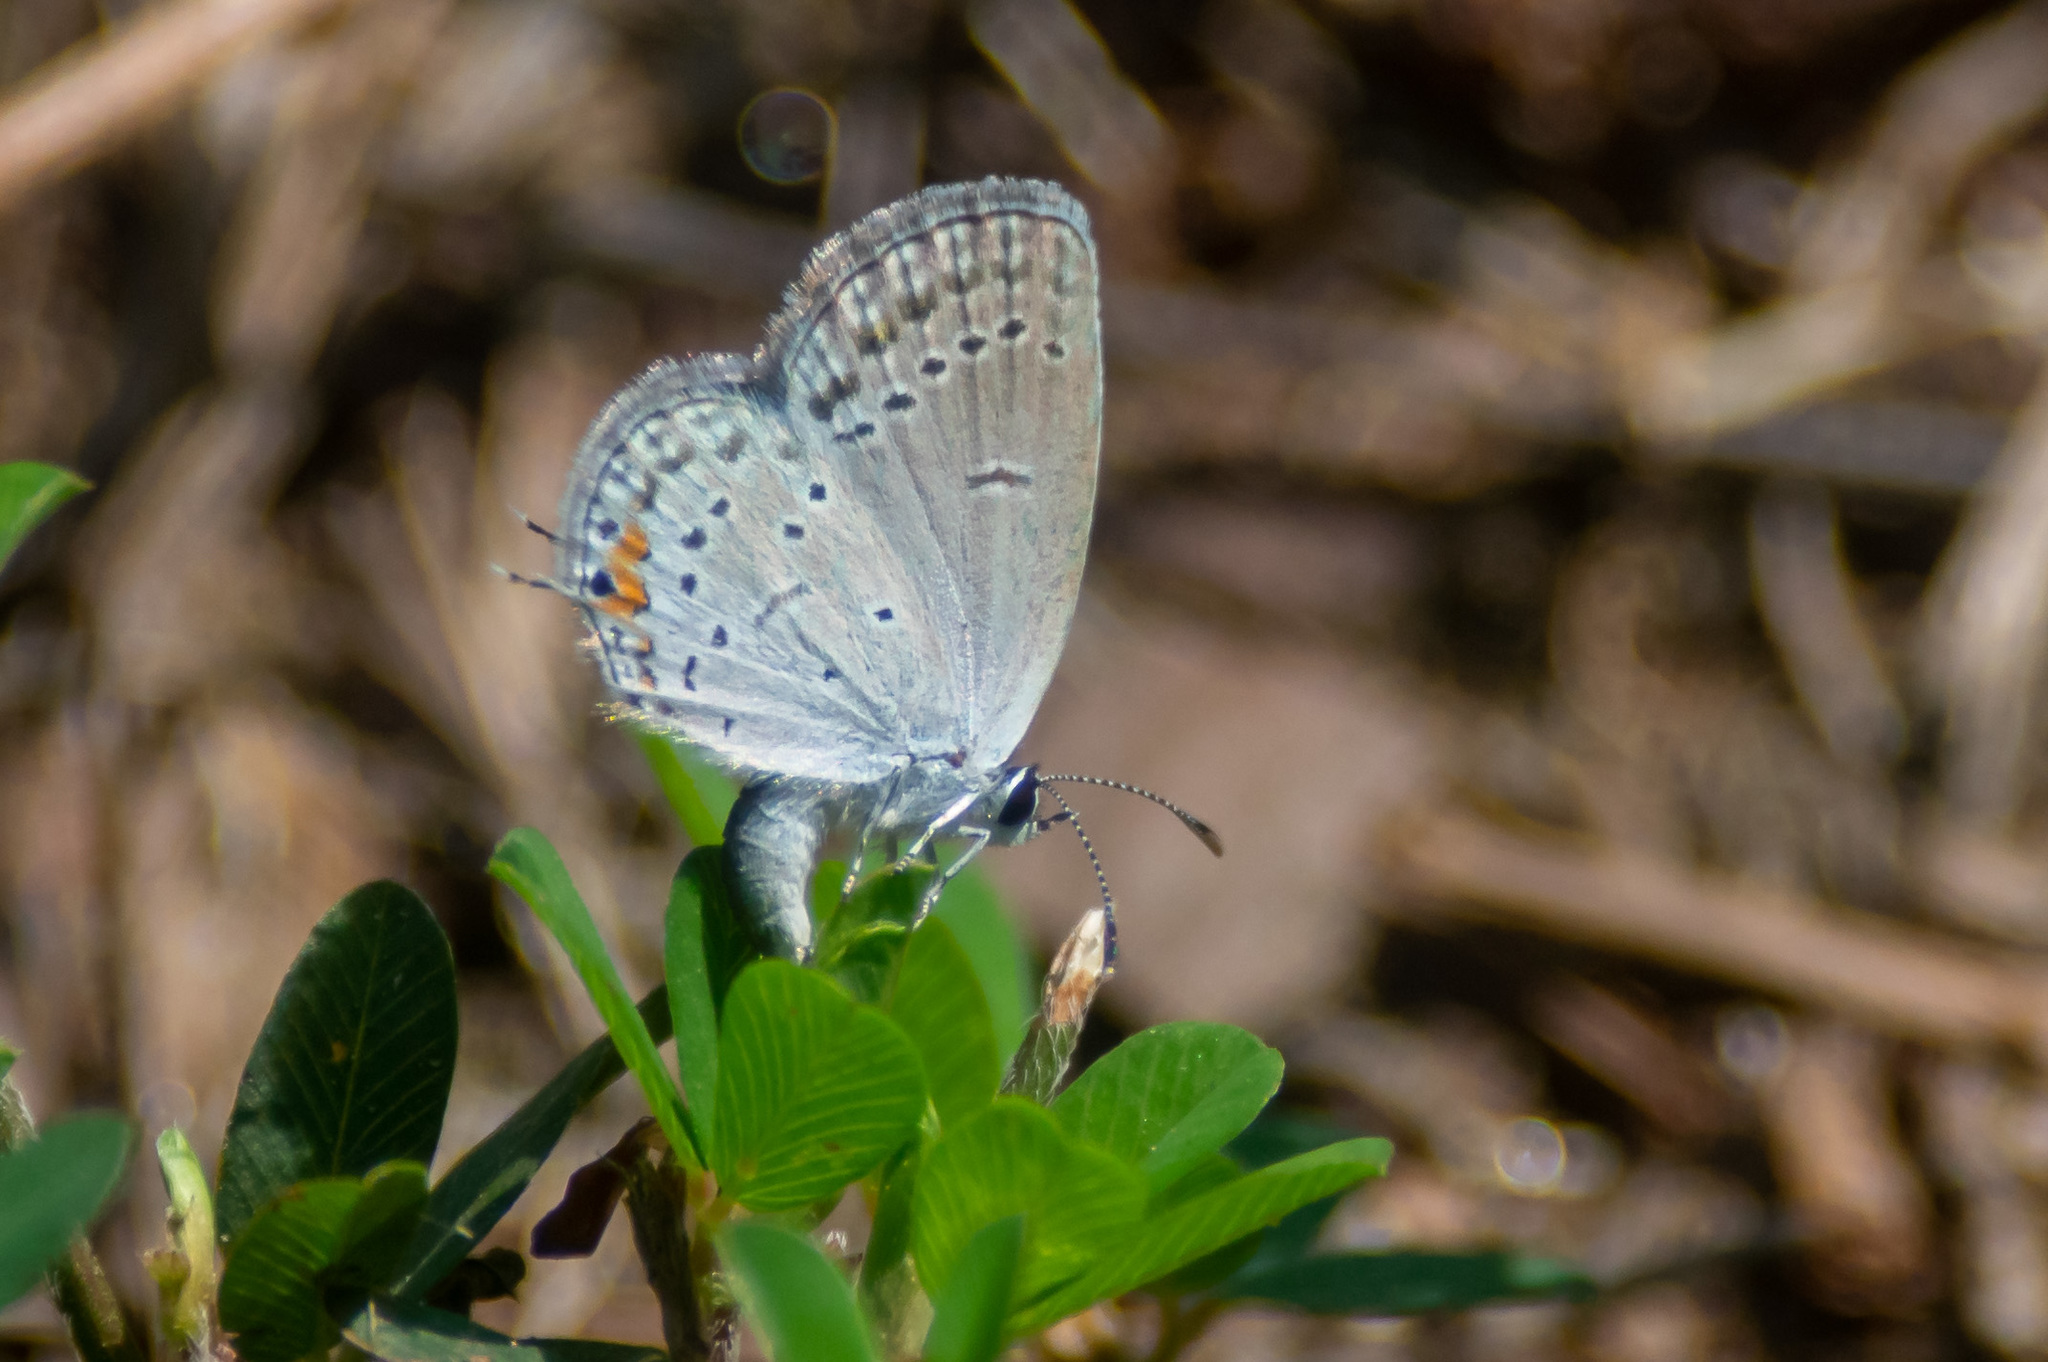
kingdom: Animalia
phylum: Arthropoda
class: Insecta
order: Lepidoptera
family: Lycaenidae
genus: Elkalyce
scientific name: Elkalyce comyntas
